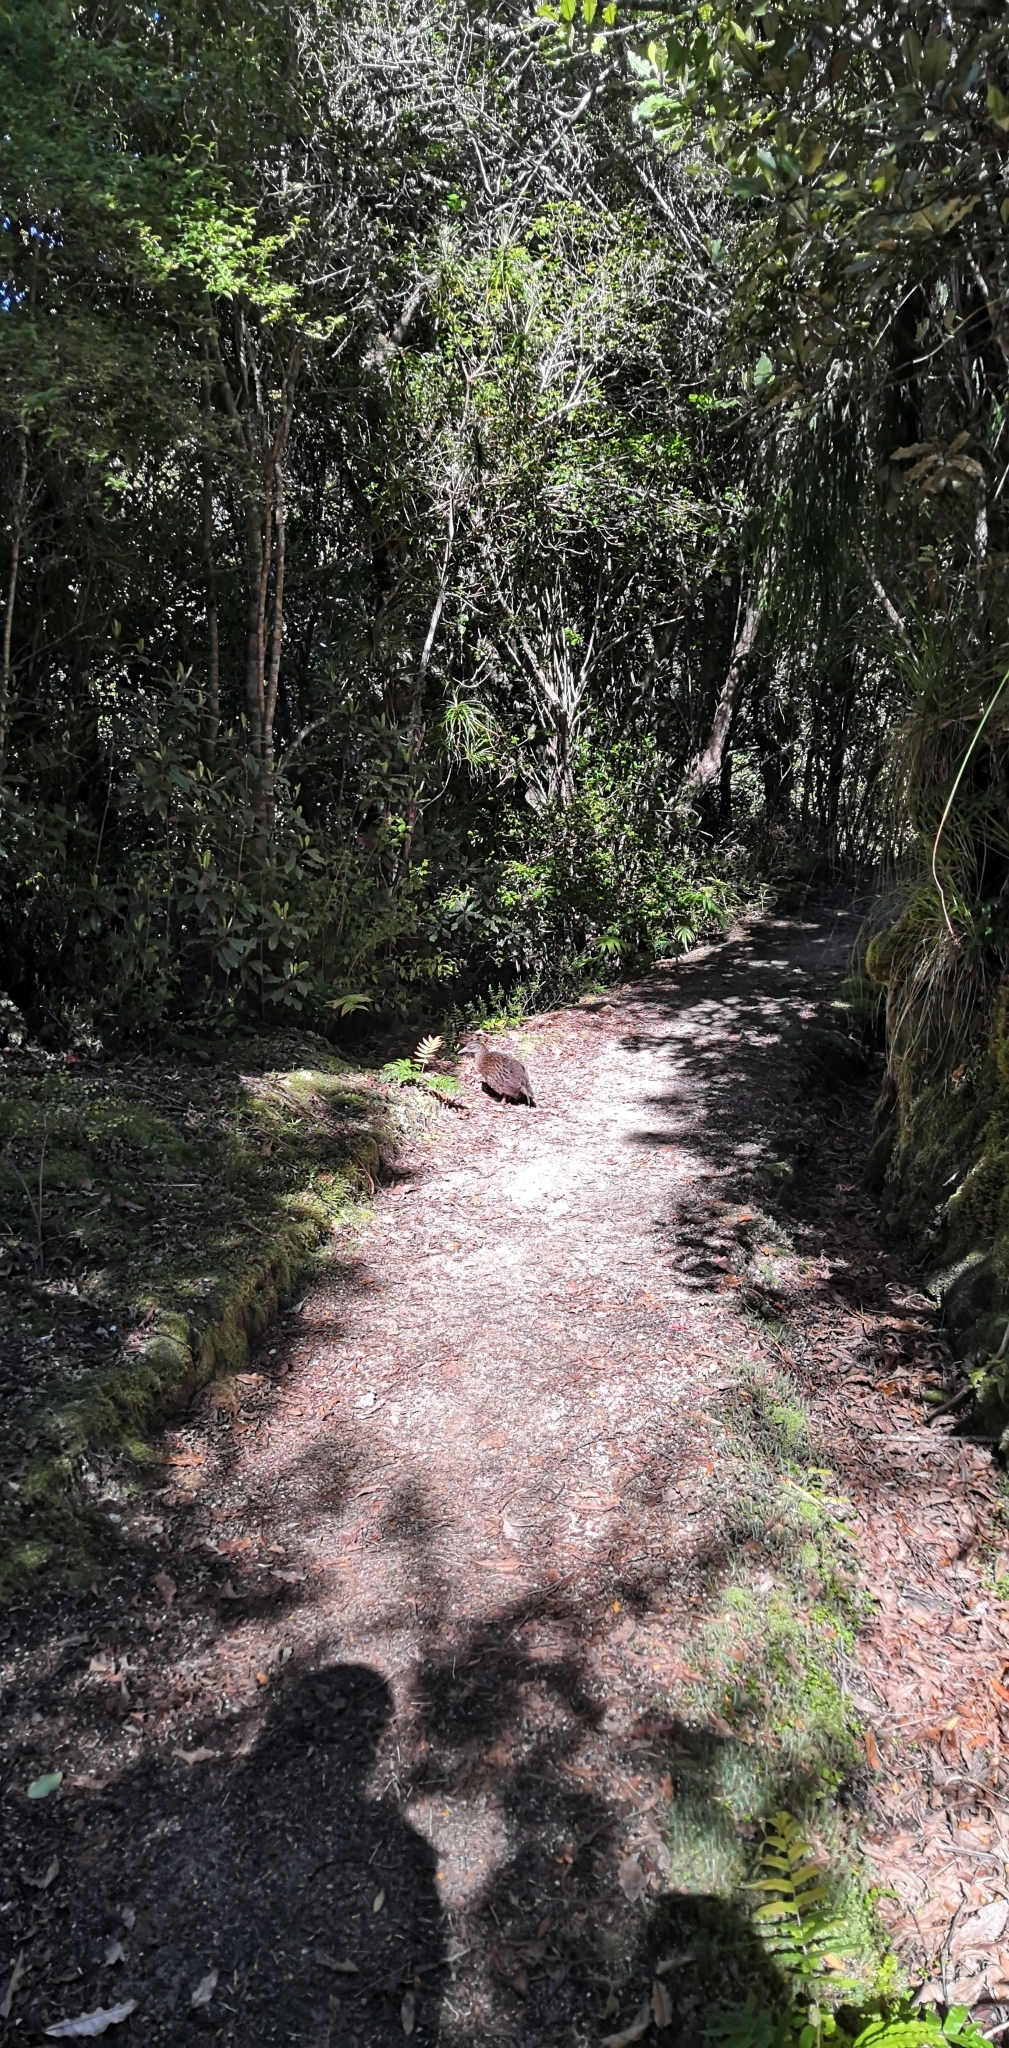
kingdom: Animalia
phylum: Chordata
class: Aves
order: Gruiformes
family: Rallidae
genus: Gallirallus
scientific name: Gallirallus australis
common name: Weka
